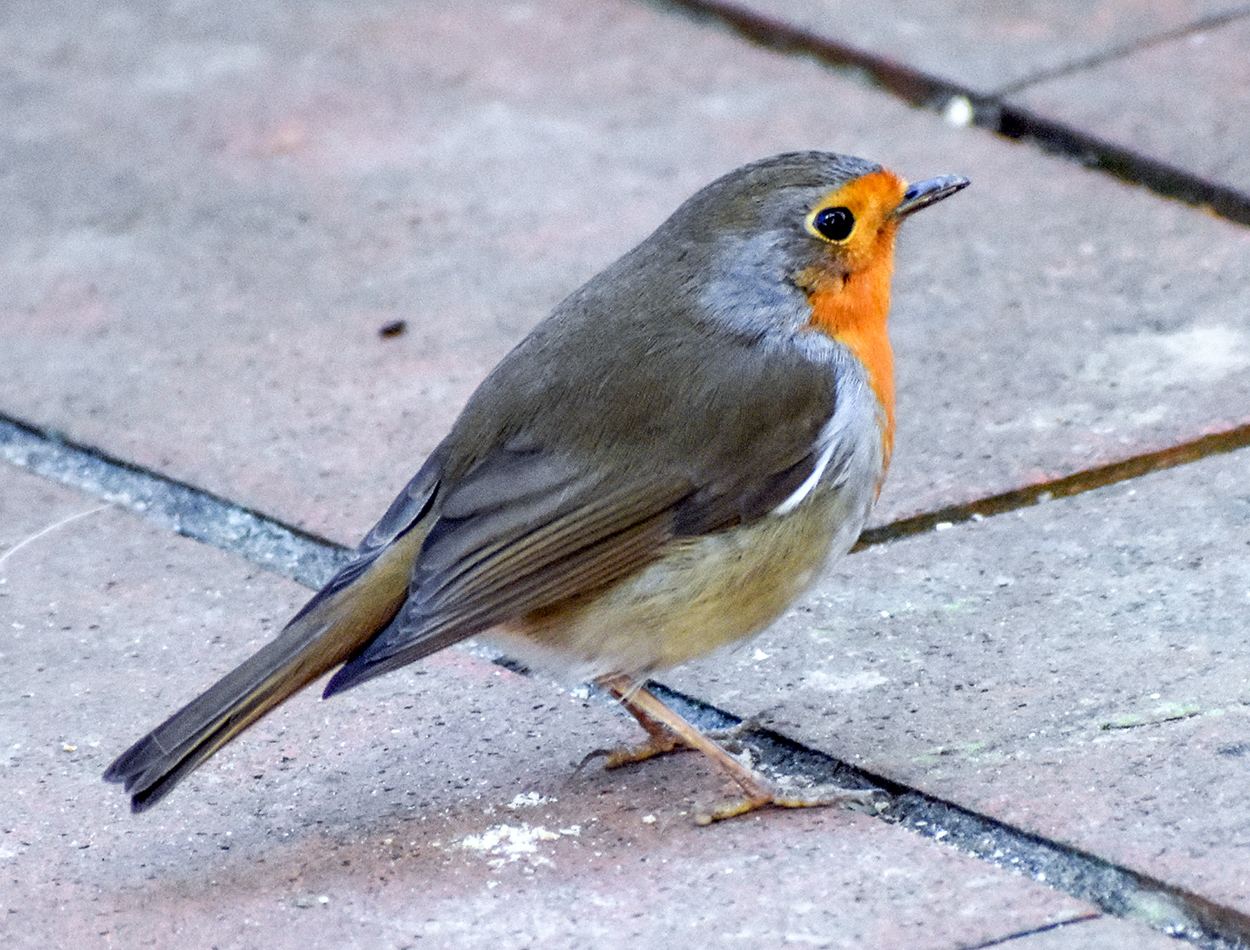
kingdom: Animalia
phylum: Chordata
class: Aves
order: Passeriformes
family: Muscicapidae
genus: Erithacus
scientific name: Erithacus rubecula
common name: European robin
